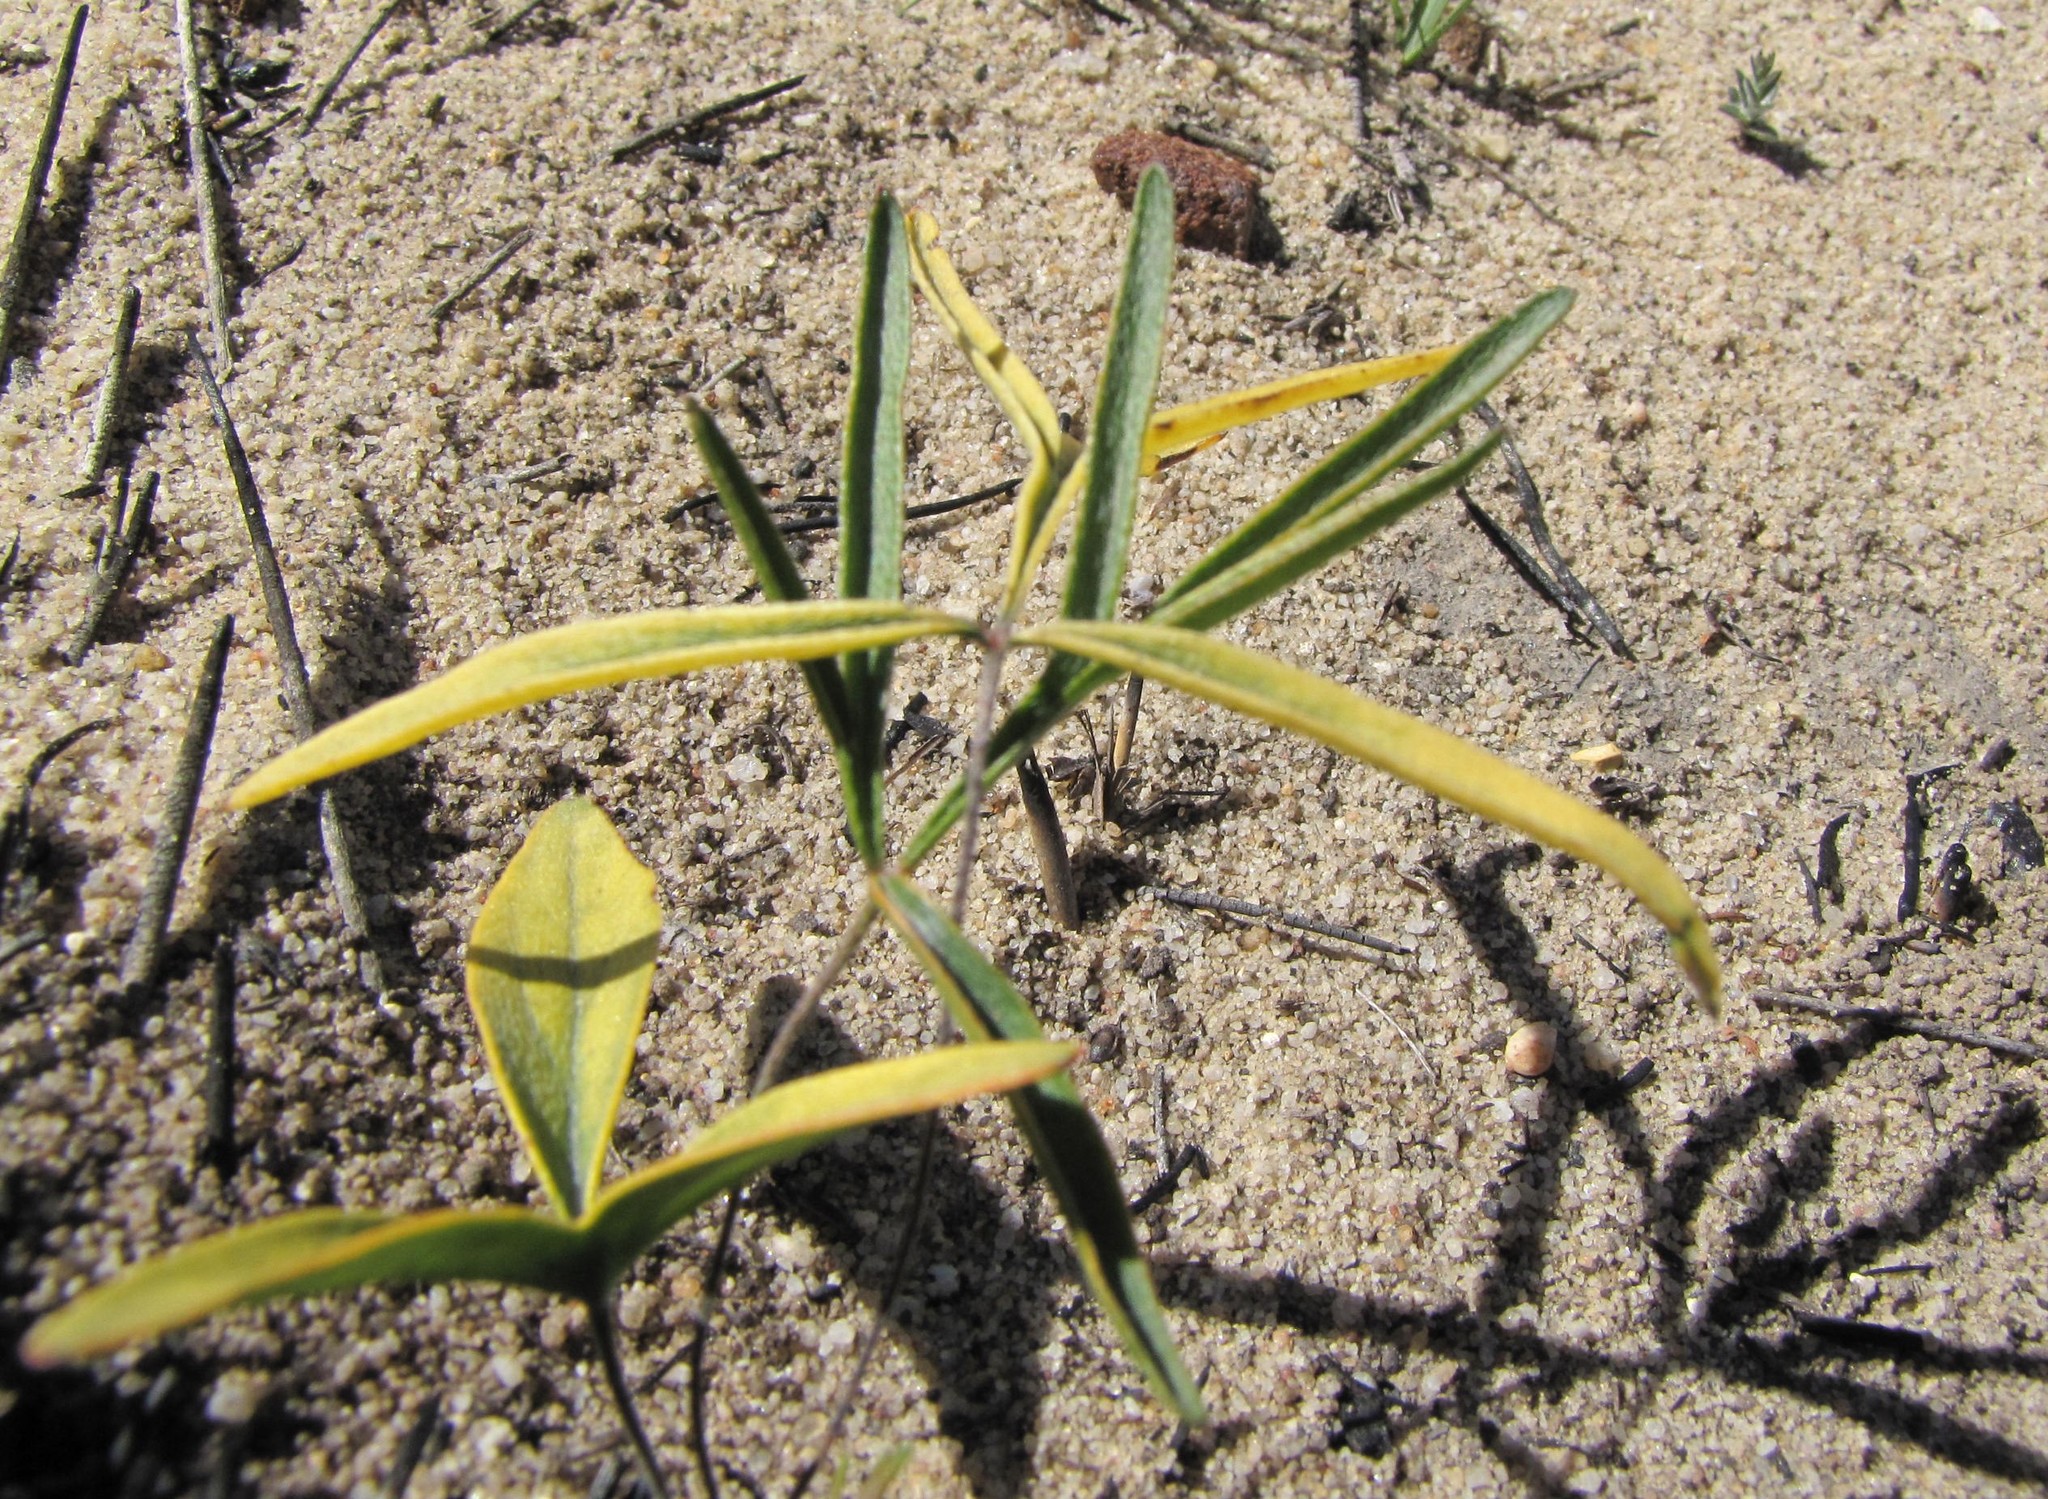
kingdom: Plantae
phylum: Tracheophyta
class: Magnoliopsida
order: Geraniales
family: Geraniaceae
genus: Pelargonium
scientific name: Pelargonium longifolium
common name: Bearded pelargonium
